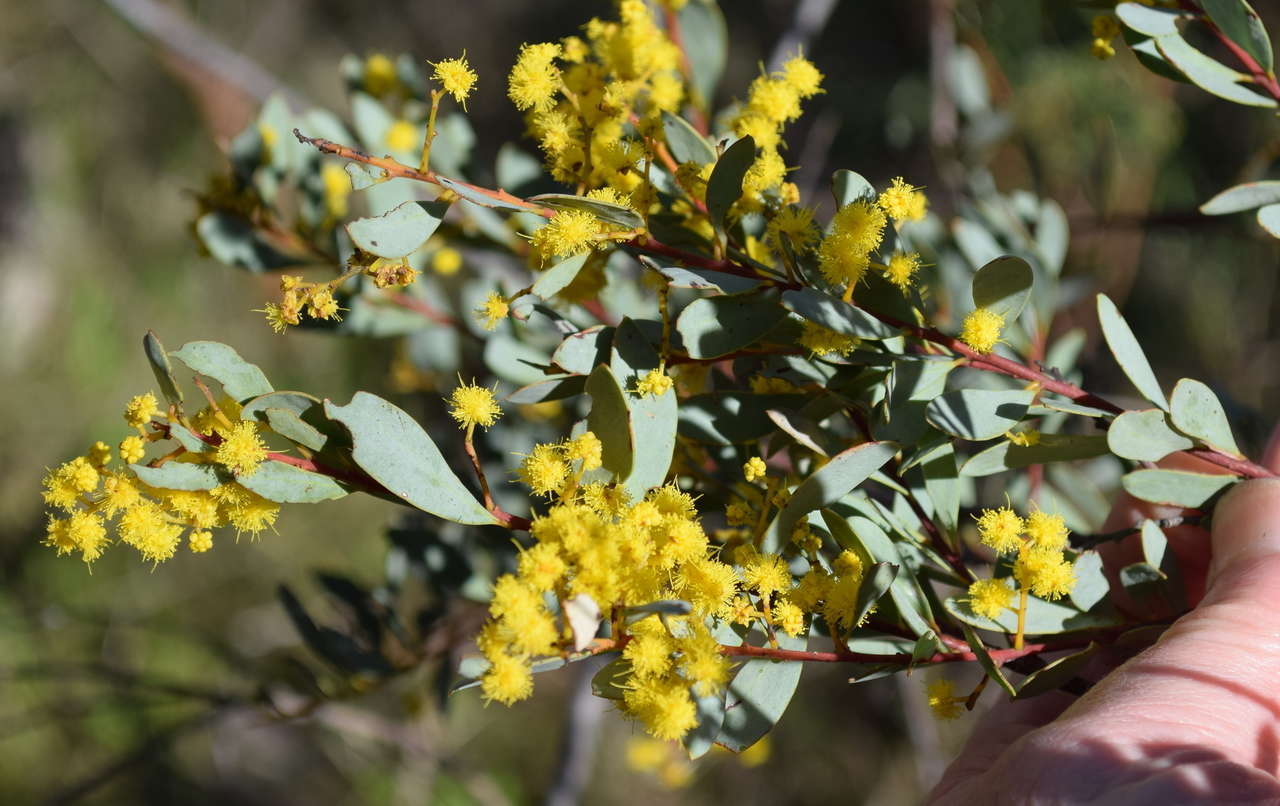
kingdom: Plantae
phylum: Tracheophyta
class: Magnoliopsida
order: Fabales
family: Fabaceae
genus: Acacia
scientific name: Acacia buxifolia
